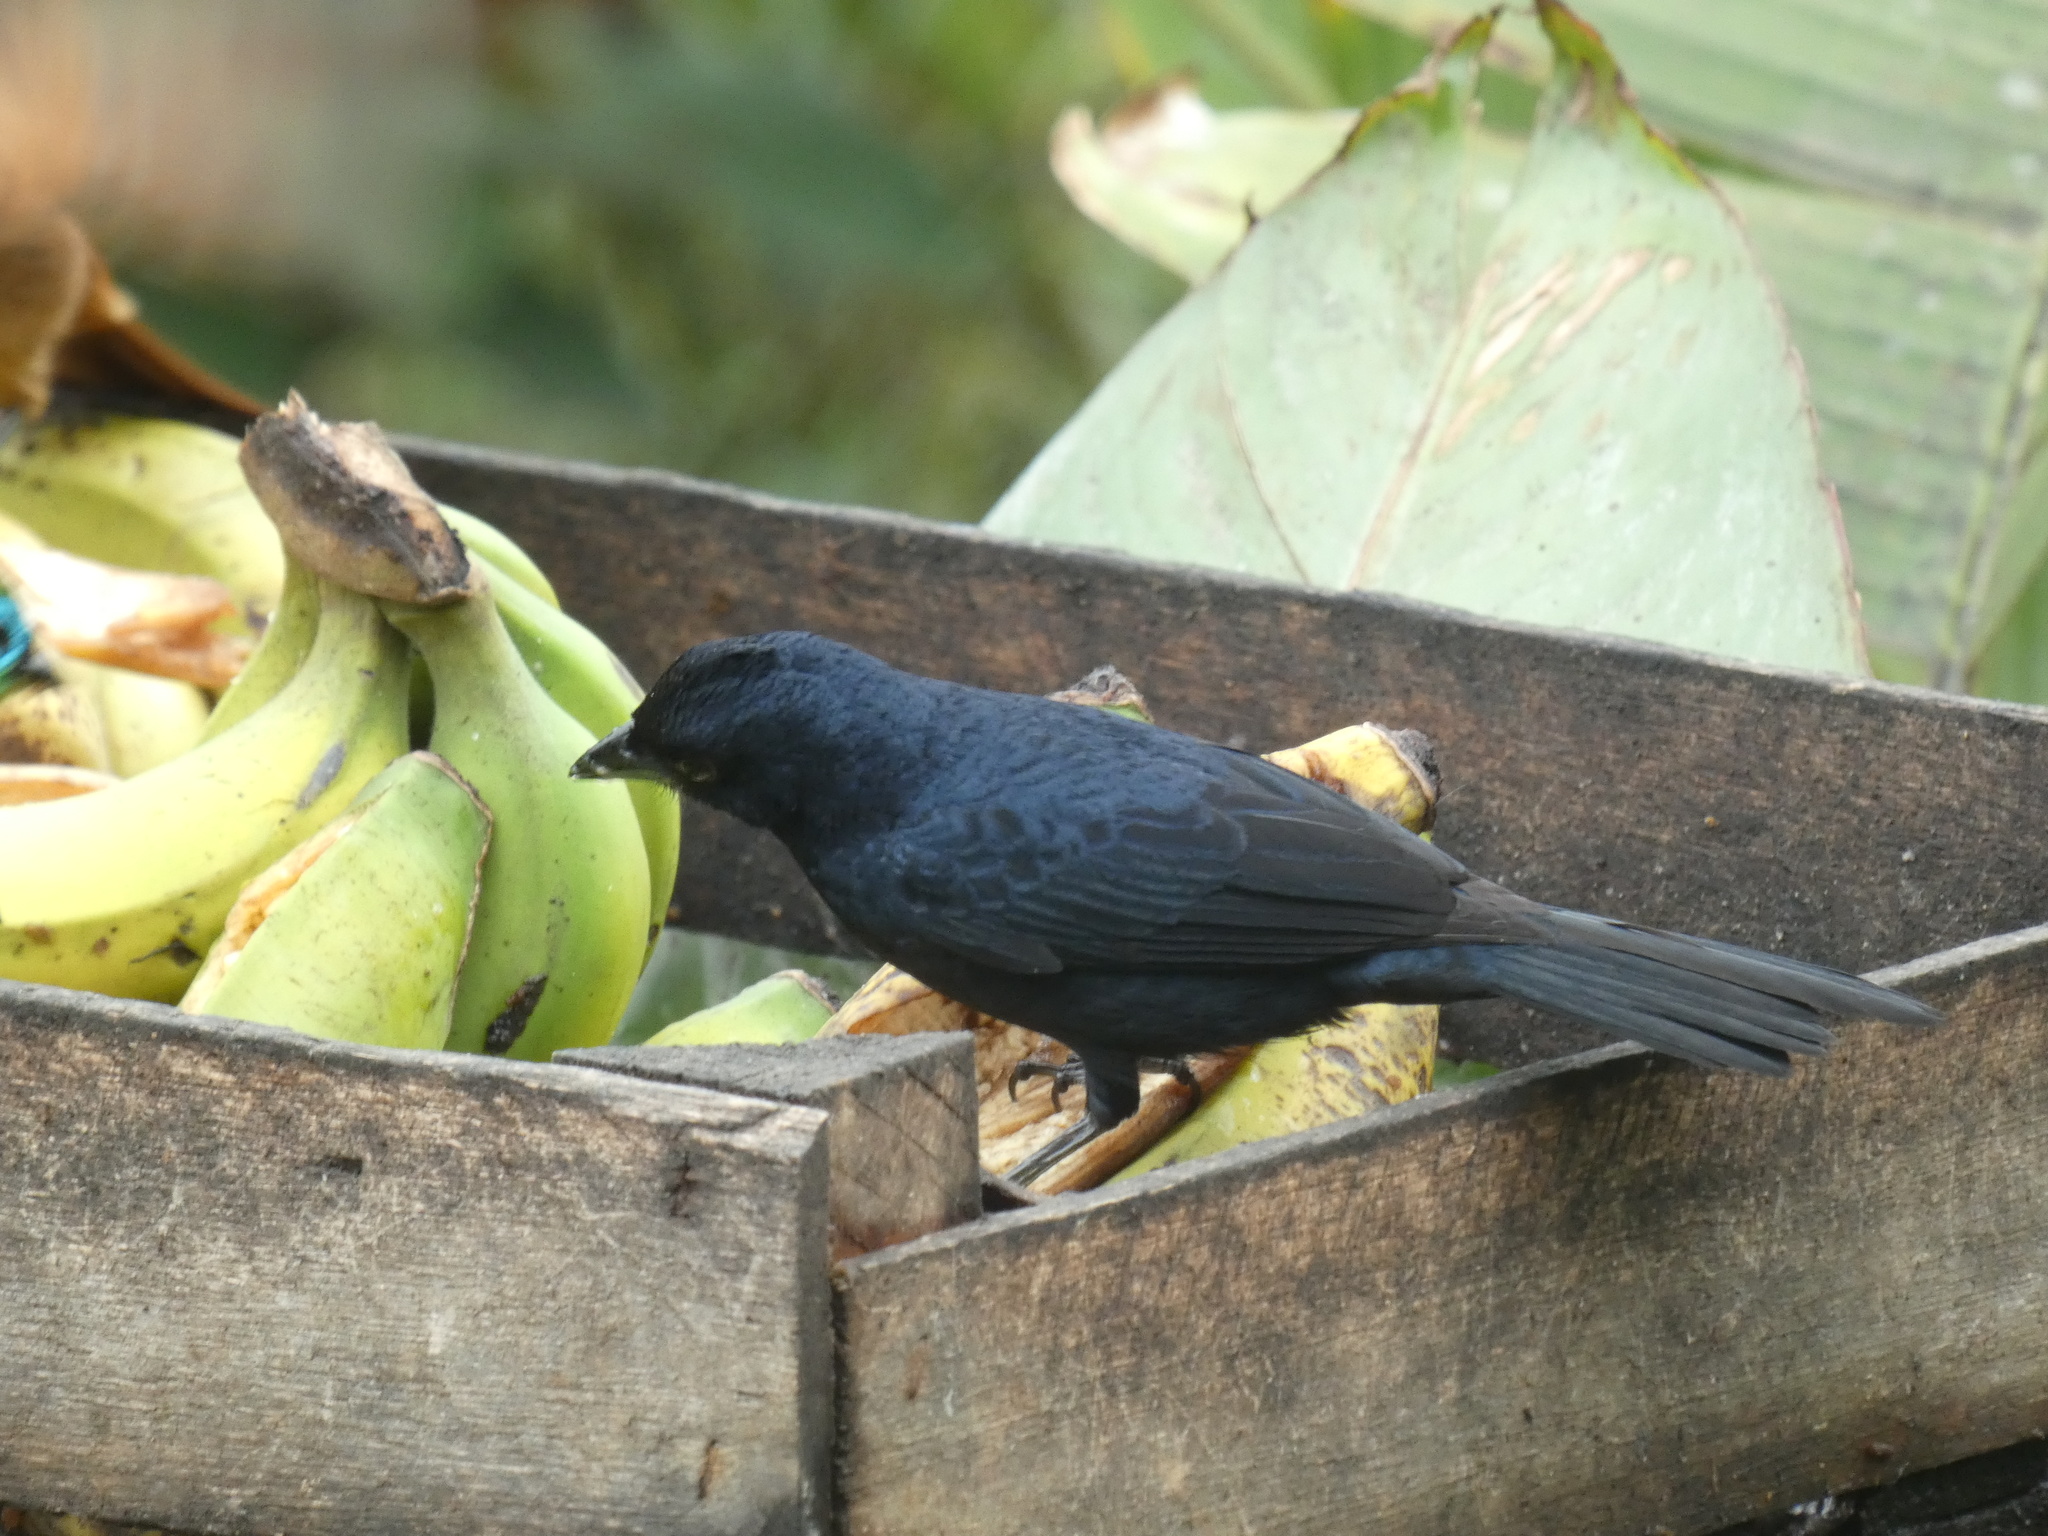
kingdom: Animalia
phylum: Chordata
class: Aves
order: Passeriformes
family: Thraupidae
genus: Tachyphonus
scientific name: Tachyphonus coronatus
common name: Ruby-crowned tanager
